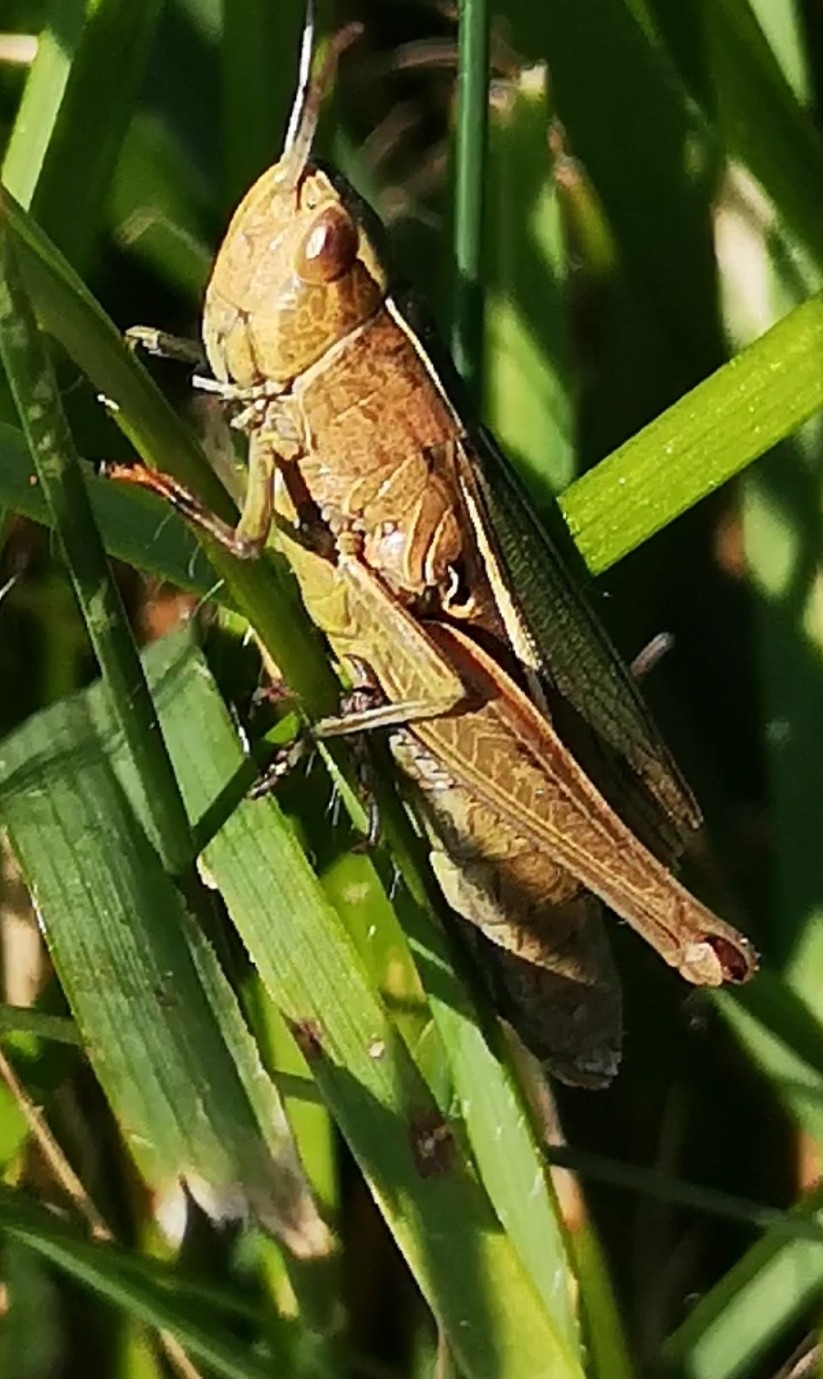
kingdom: Animalia
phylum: Arthropoda
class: Insecta
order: Orthoptera
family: Acrididae
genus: Chorthippus
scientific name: Chorthippus albomarginatus
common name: Lesser marsh grasshopper
